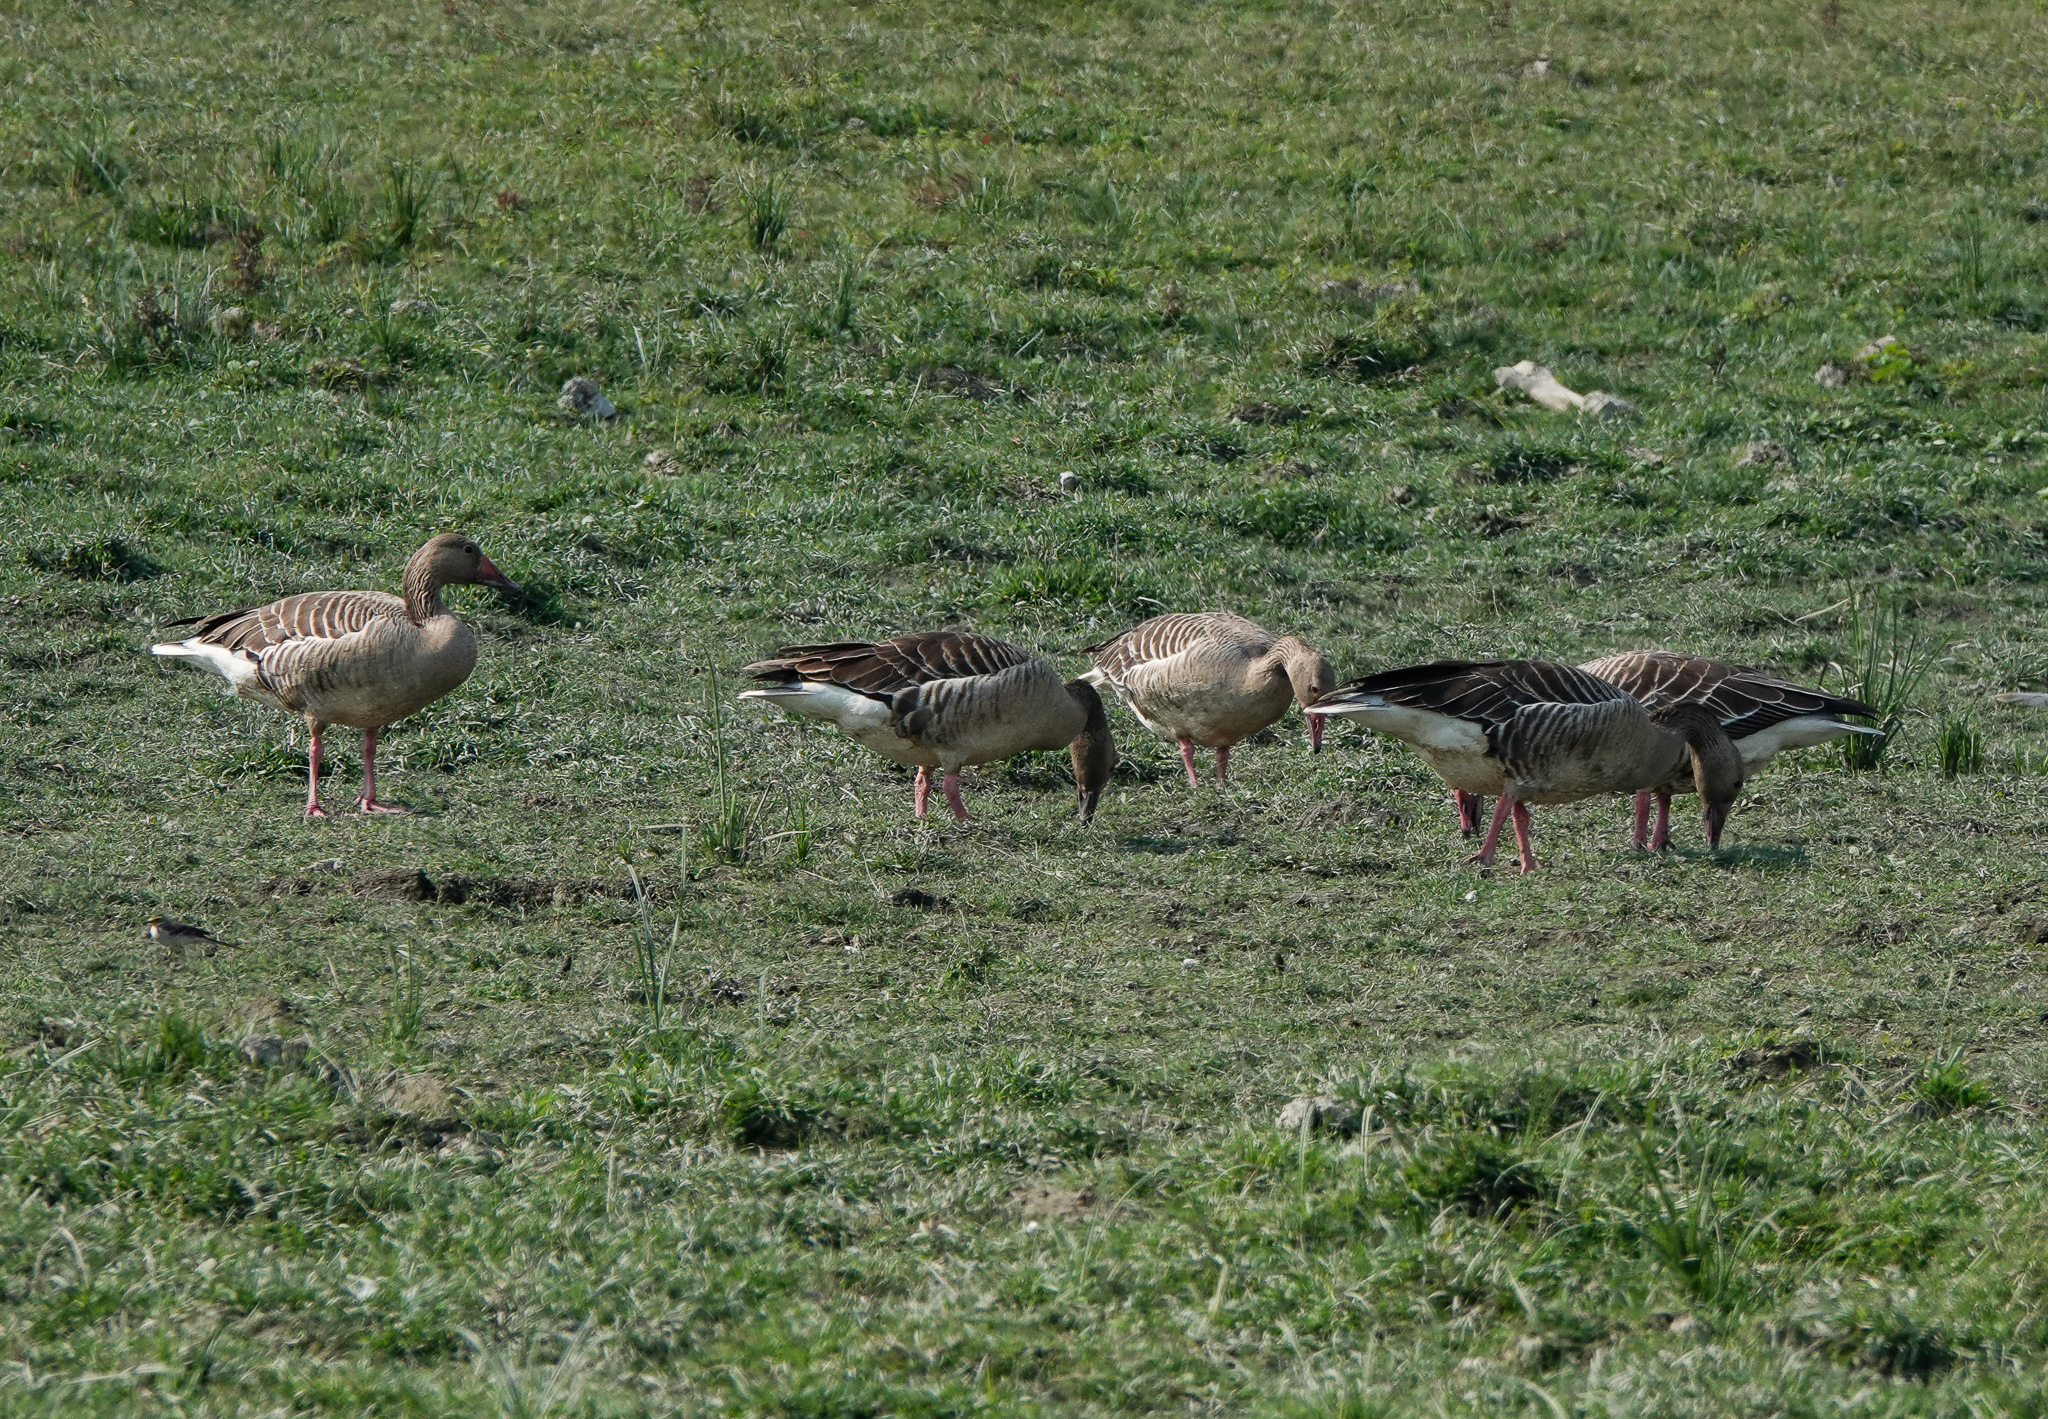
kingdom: Animalia
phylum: Chordata
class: Aves
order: Anseriformes
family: Anatidae
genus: Anser
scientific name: Anser anser
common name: Greylag goose
